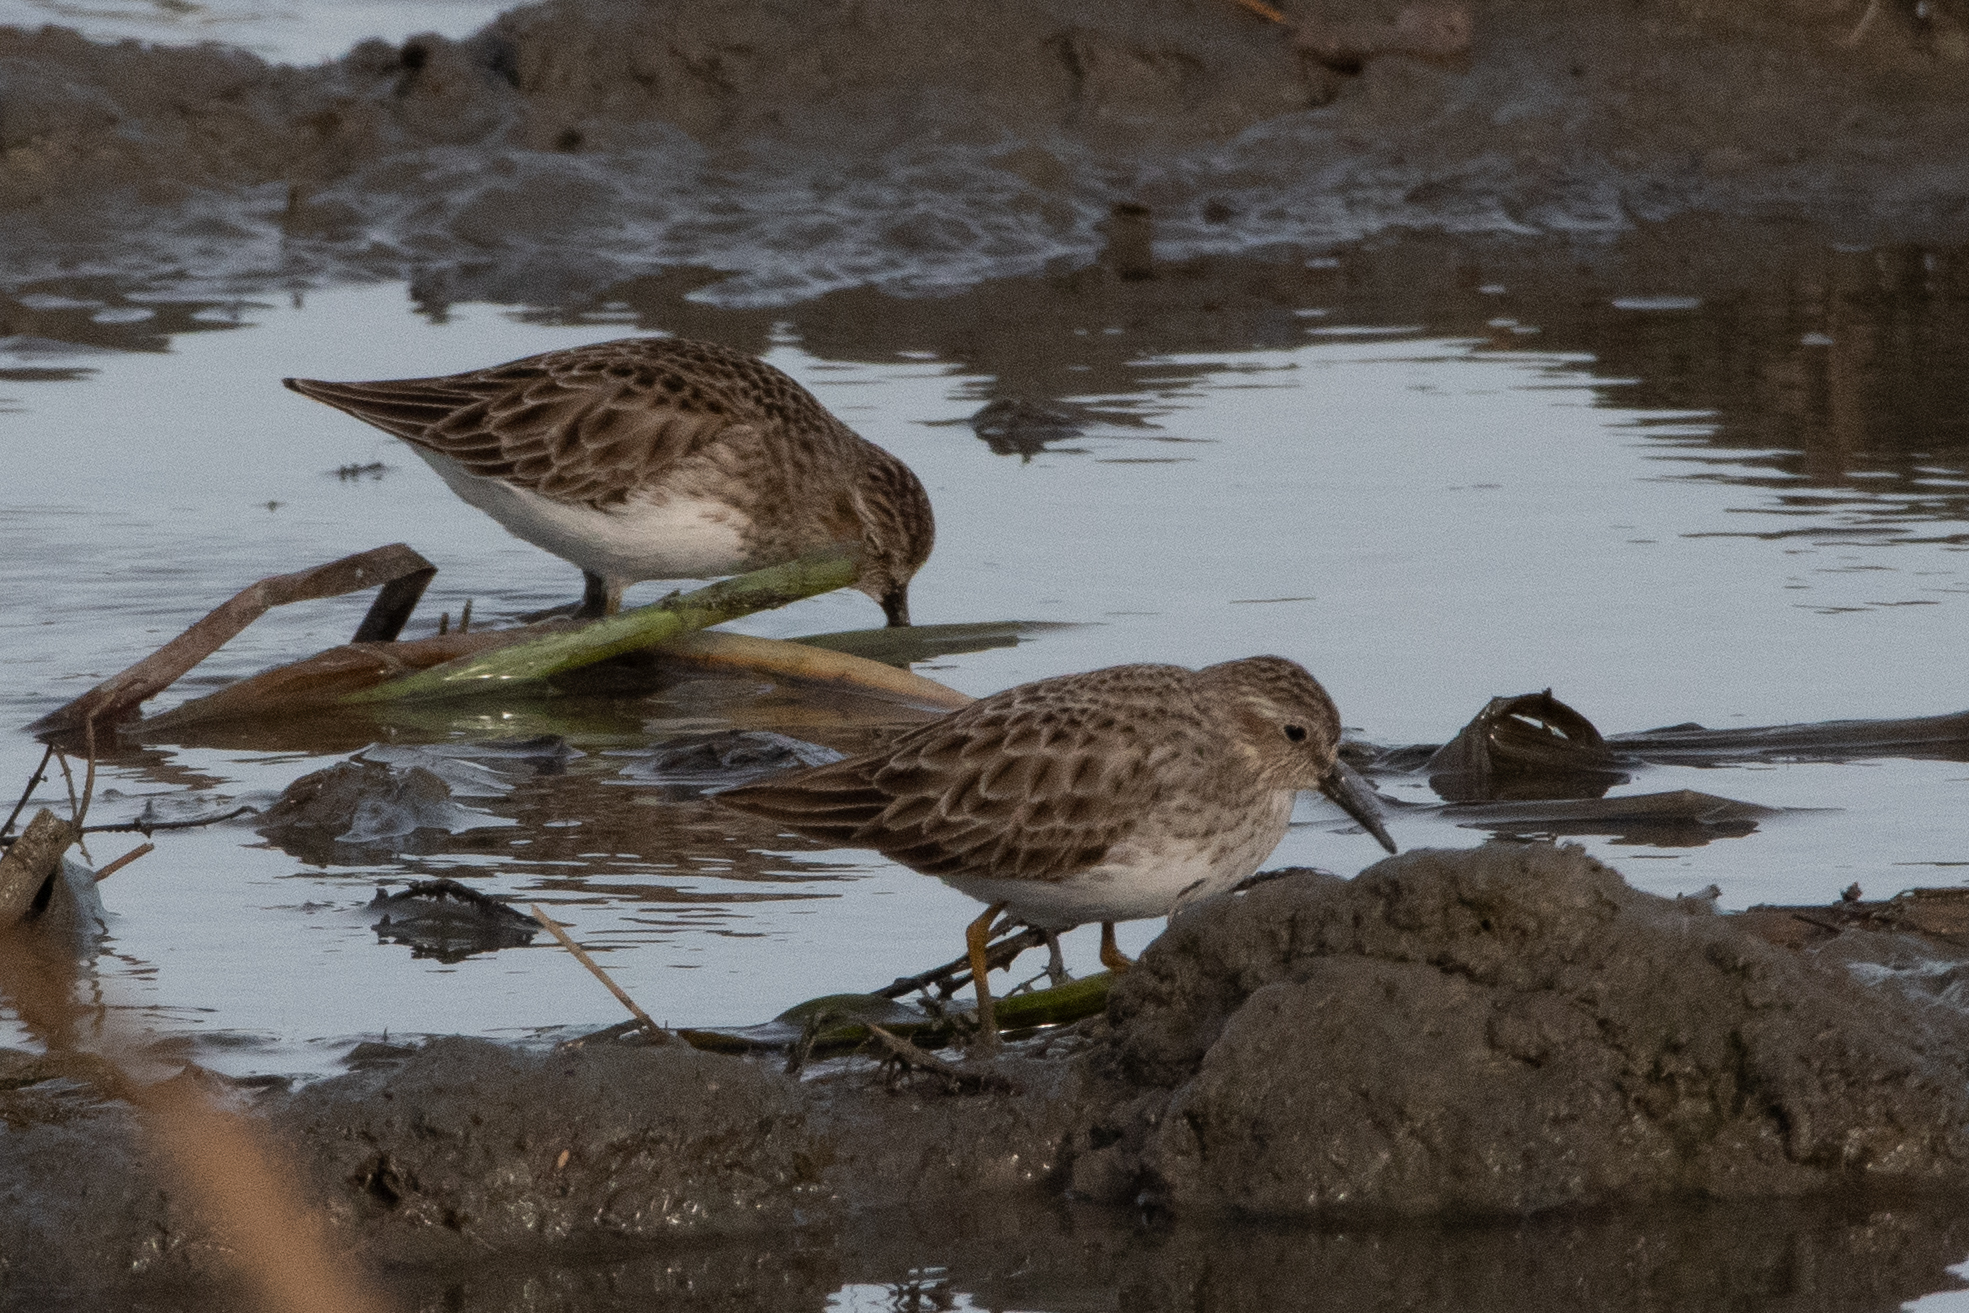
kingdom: Animalia
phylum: Chordata
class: Aves
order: Charadriiformes
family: Scolopacidae
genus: Calidris
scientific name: Calidris minutilla
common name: Least sandpiper
